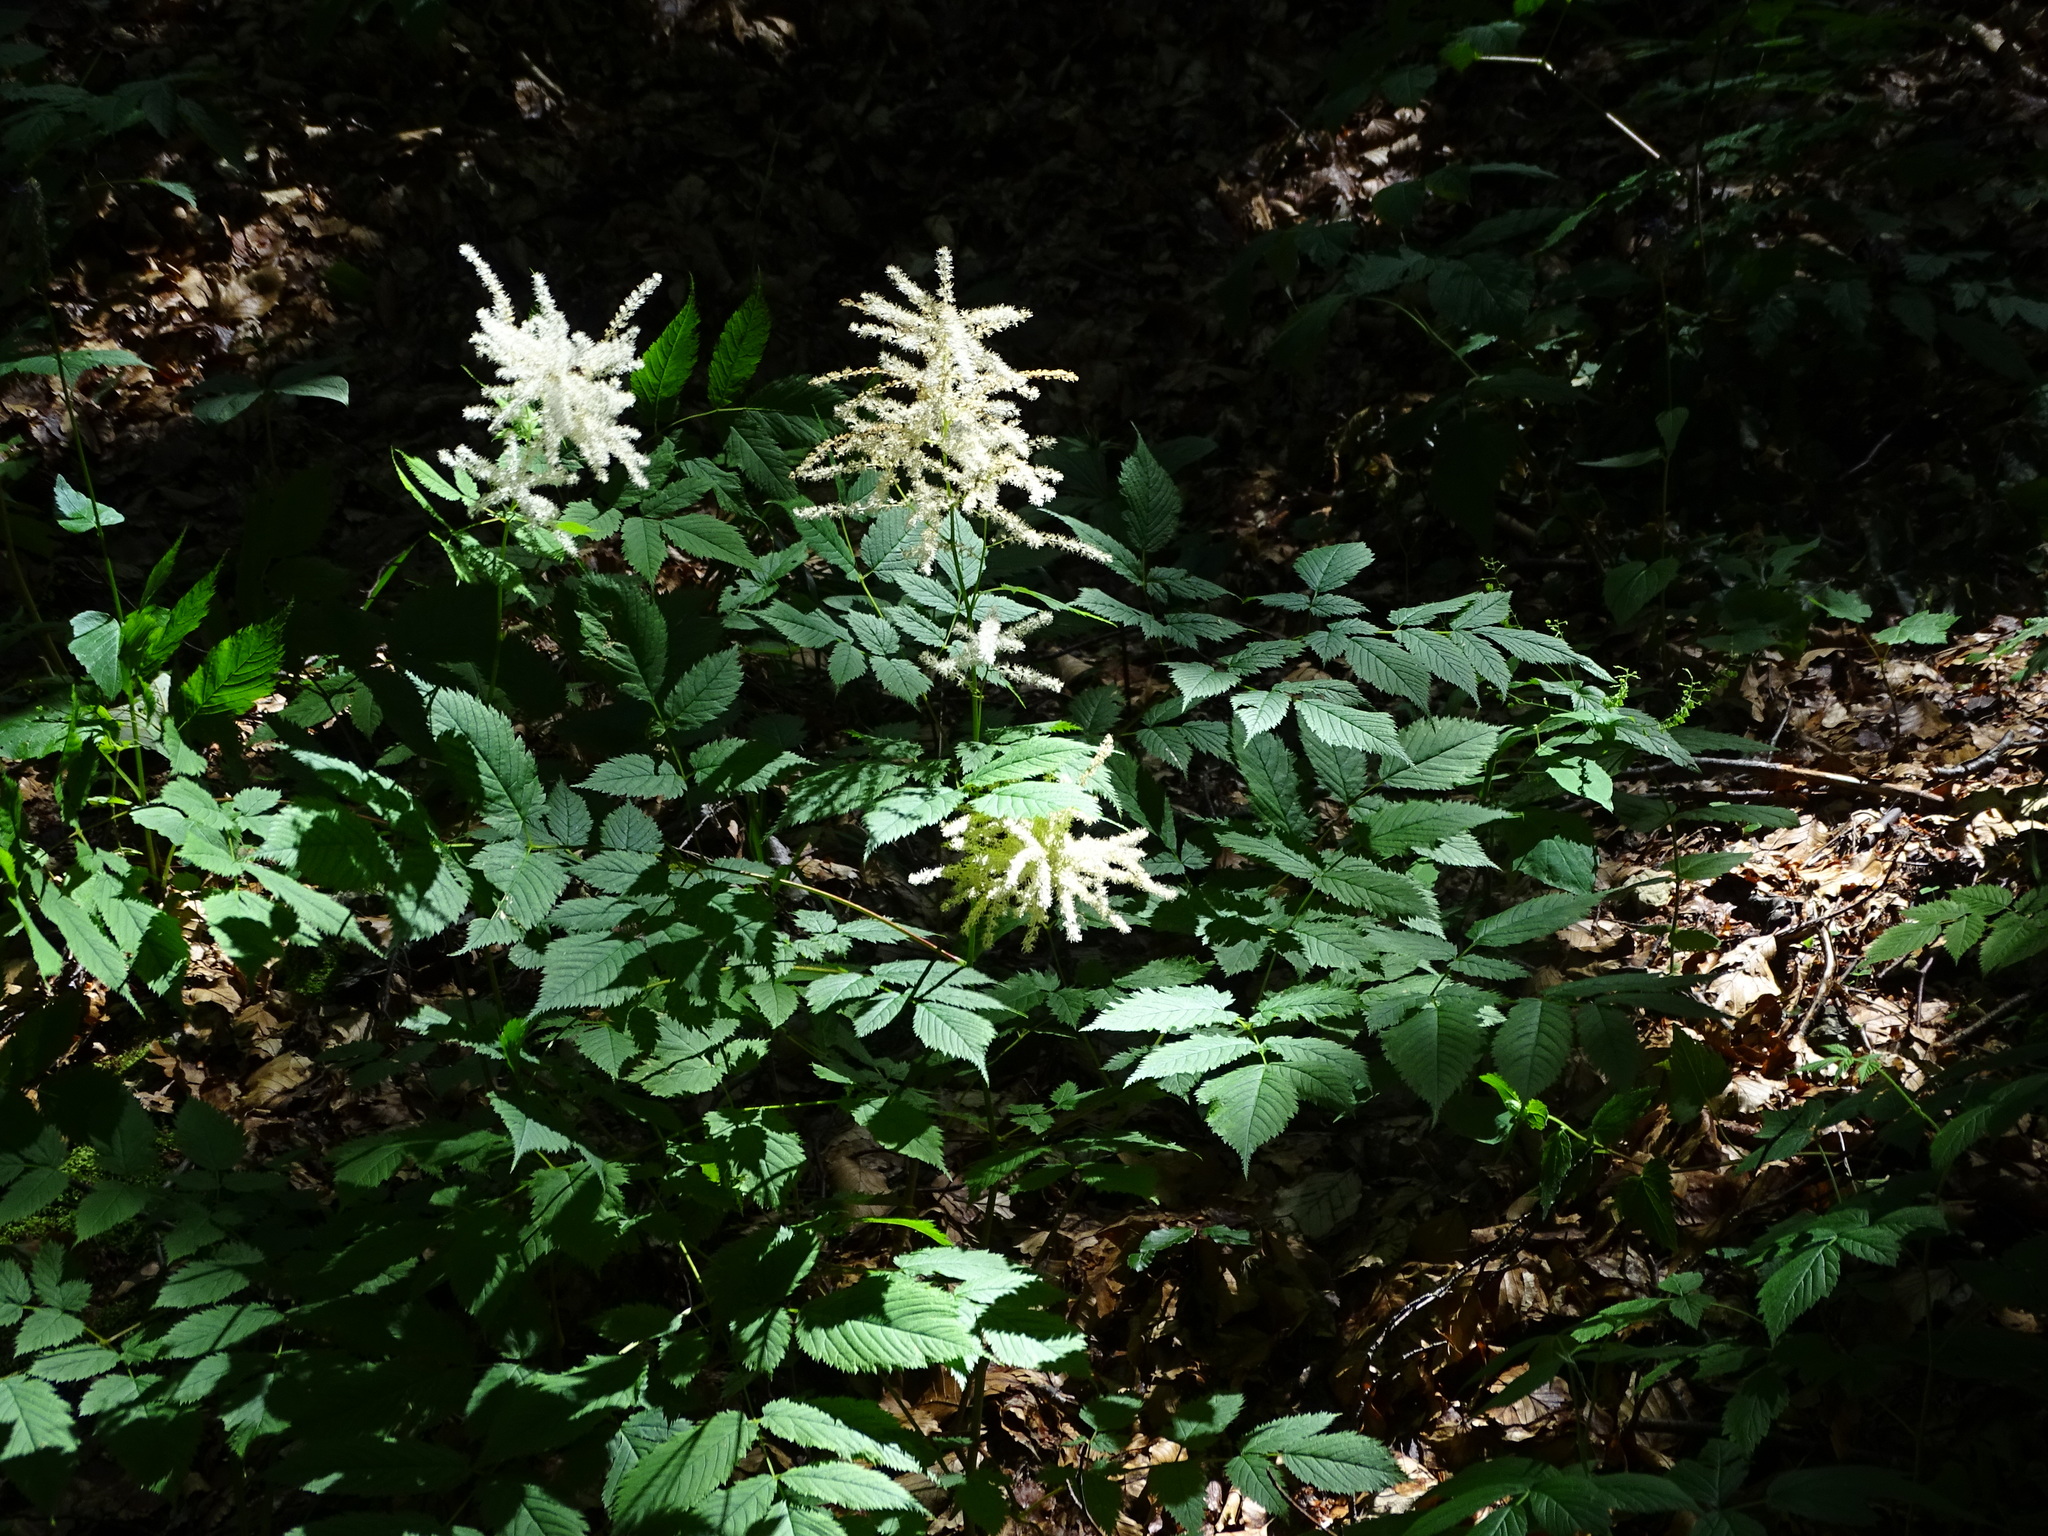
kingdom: Plantae
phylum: Tracheophyta
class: Magnoliopsida
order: Rosales
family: Rosaceae
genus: Aruncus
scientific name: Aruncus dioicus
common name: Buck's-beard
